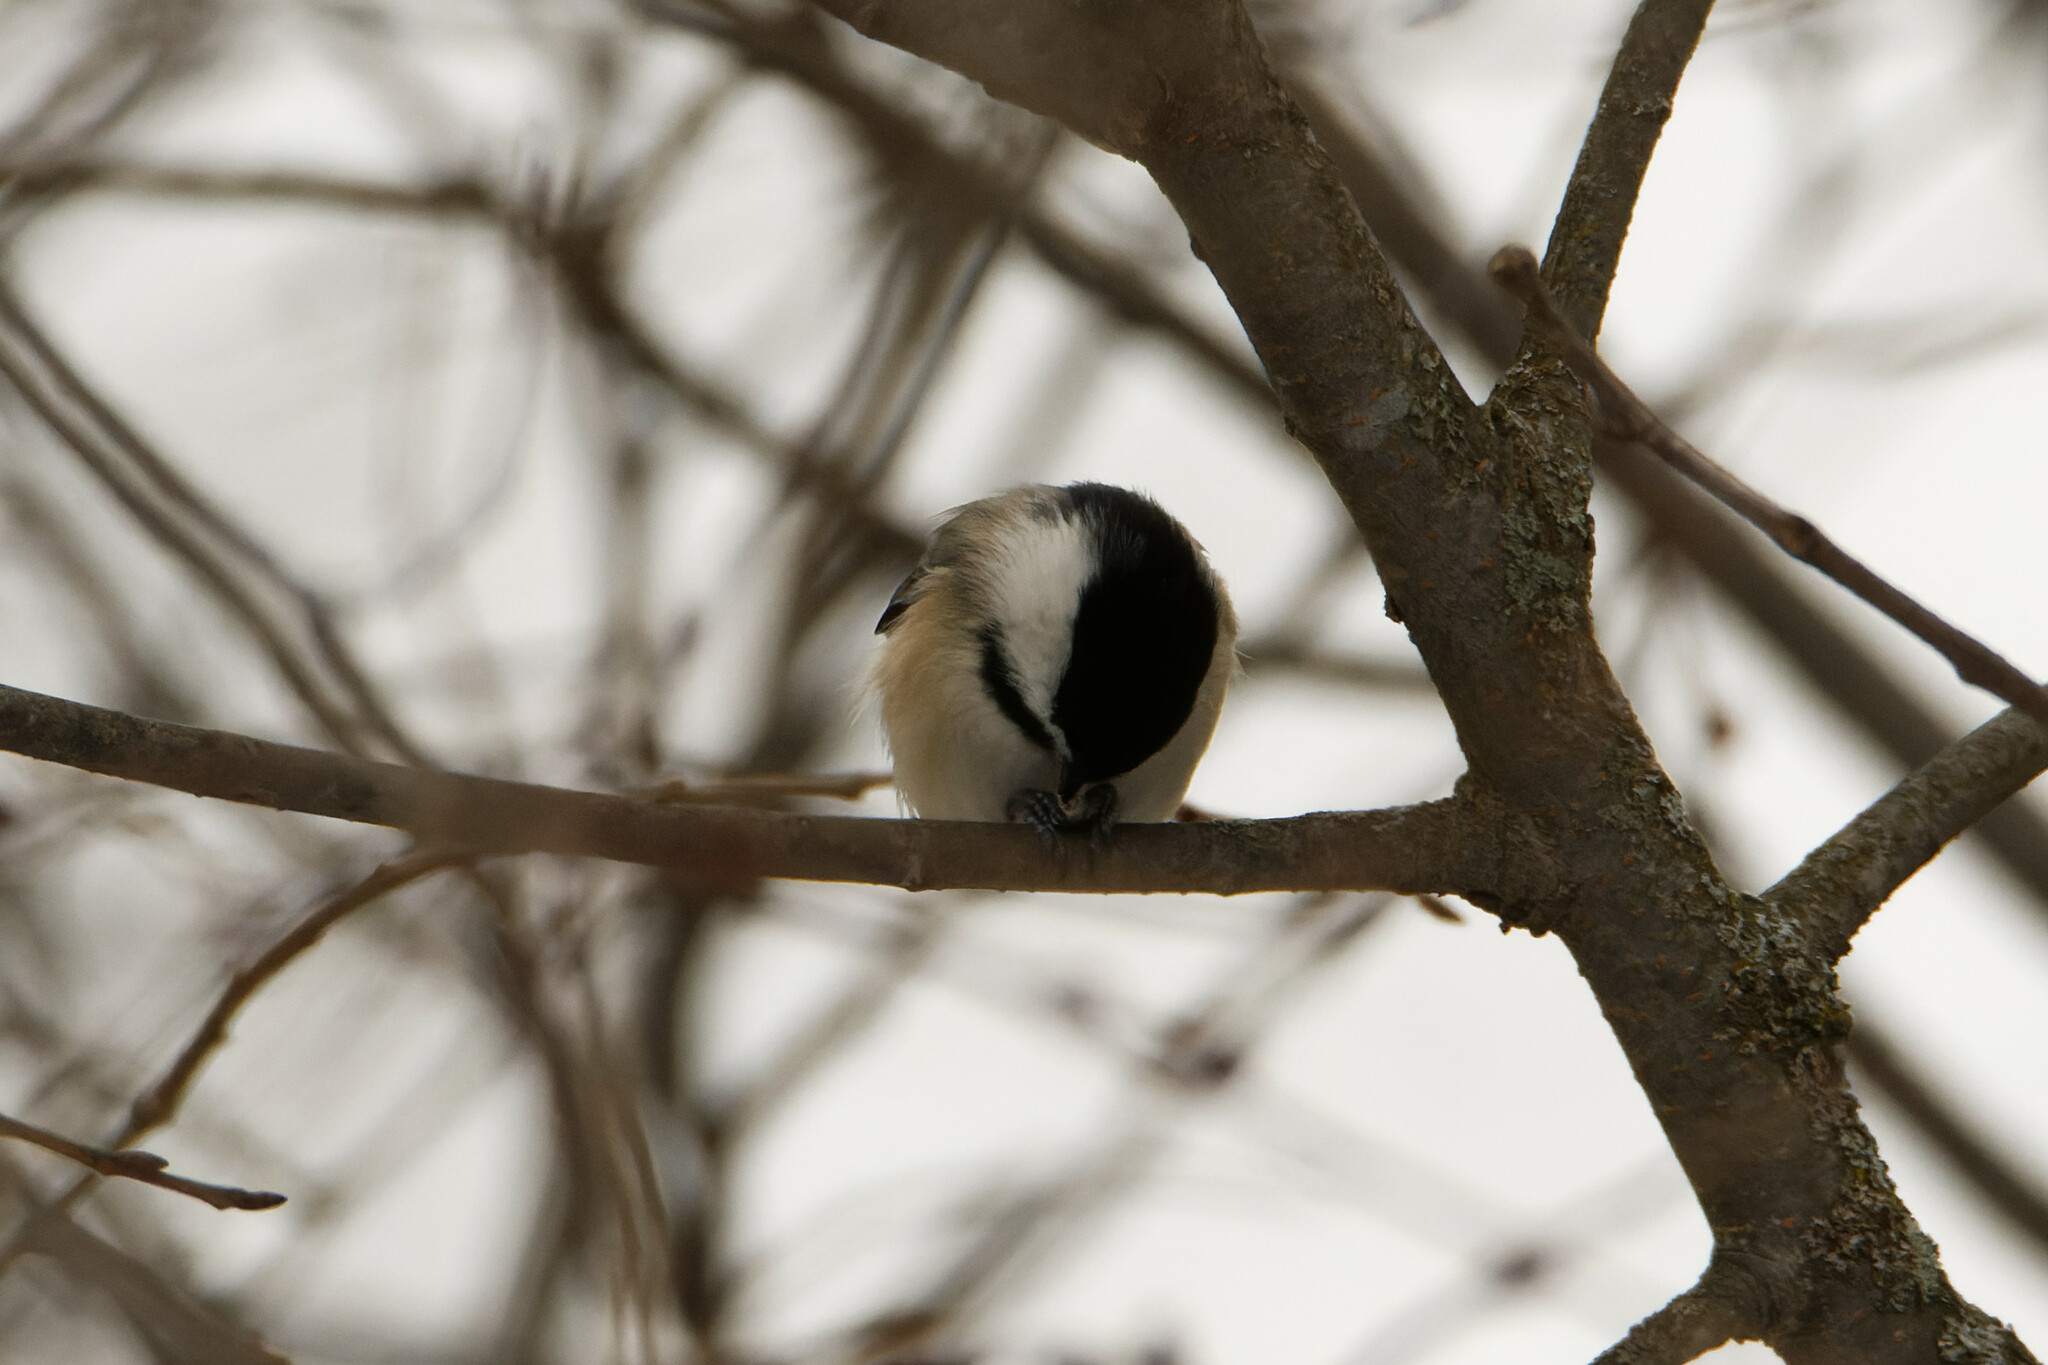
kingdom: Animalia
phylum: Chordata
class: Aves
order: Passeriformes
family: Paridae
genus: Poecile
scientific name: Poecile atricapillus
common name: Black-capped chickadee
